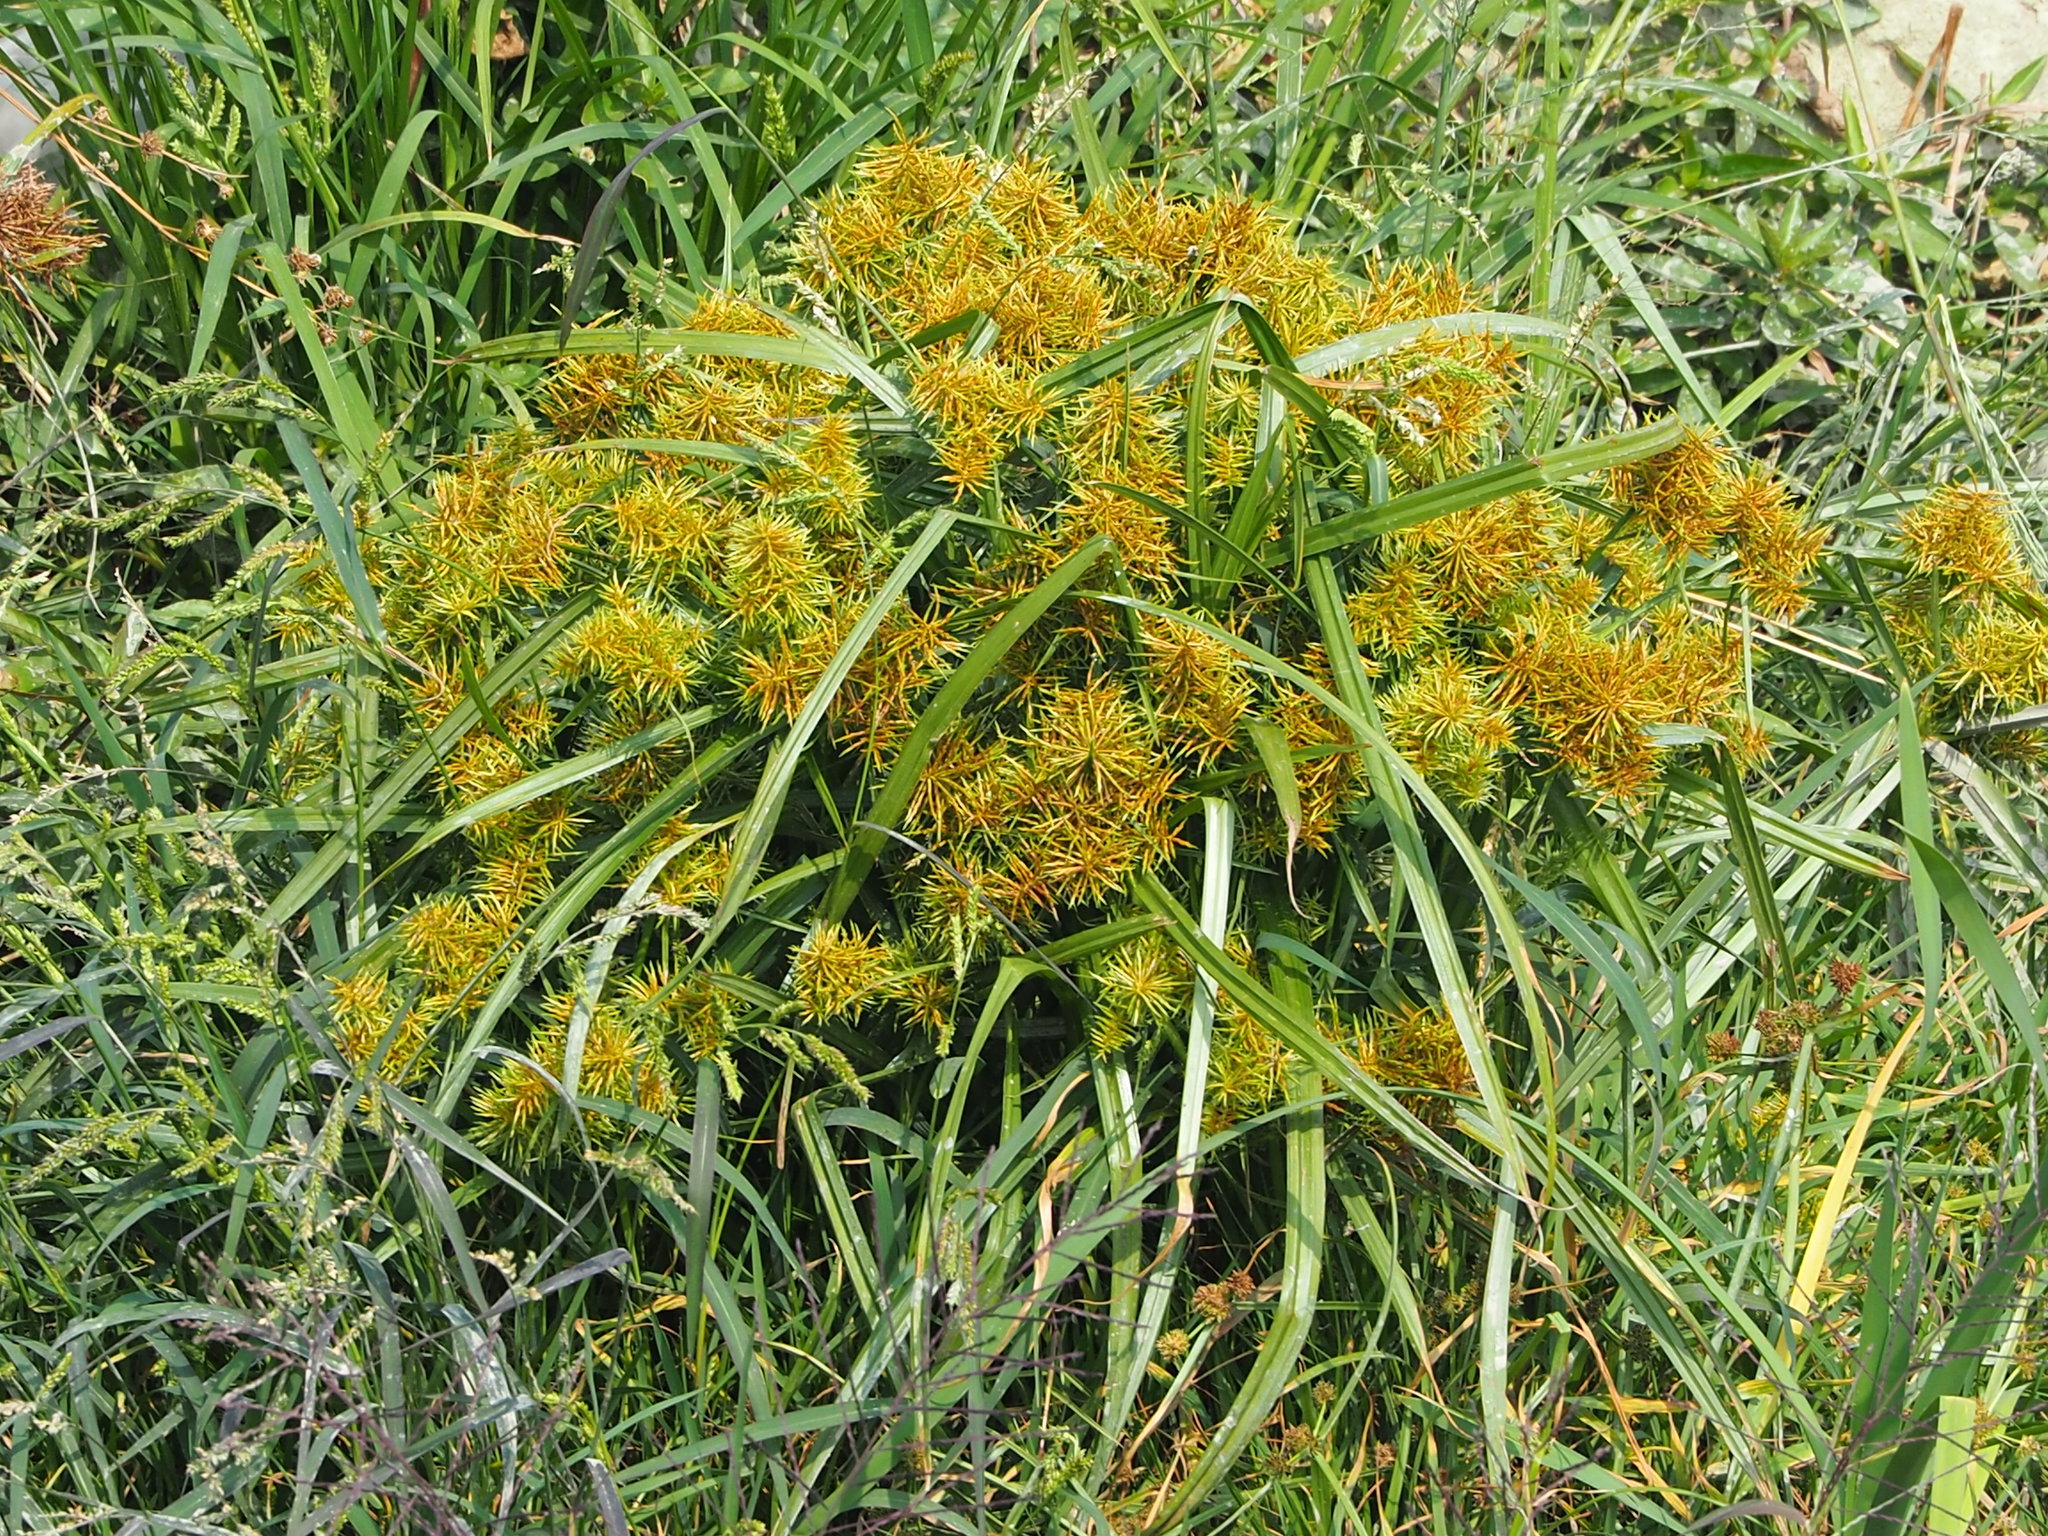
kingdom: Plantae
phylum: Tracheophyta
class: Liliopsida
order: Poales
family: Cyperaceae
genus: Cyperus
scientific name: Cyperus odoratus
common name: Fragrant flatsedge
